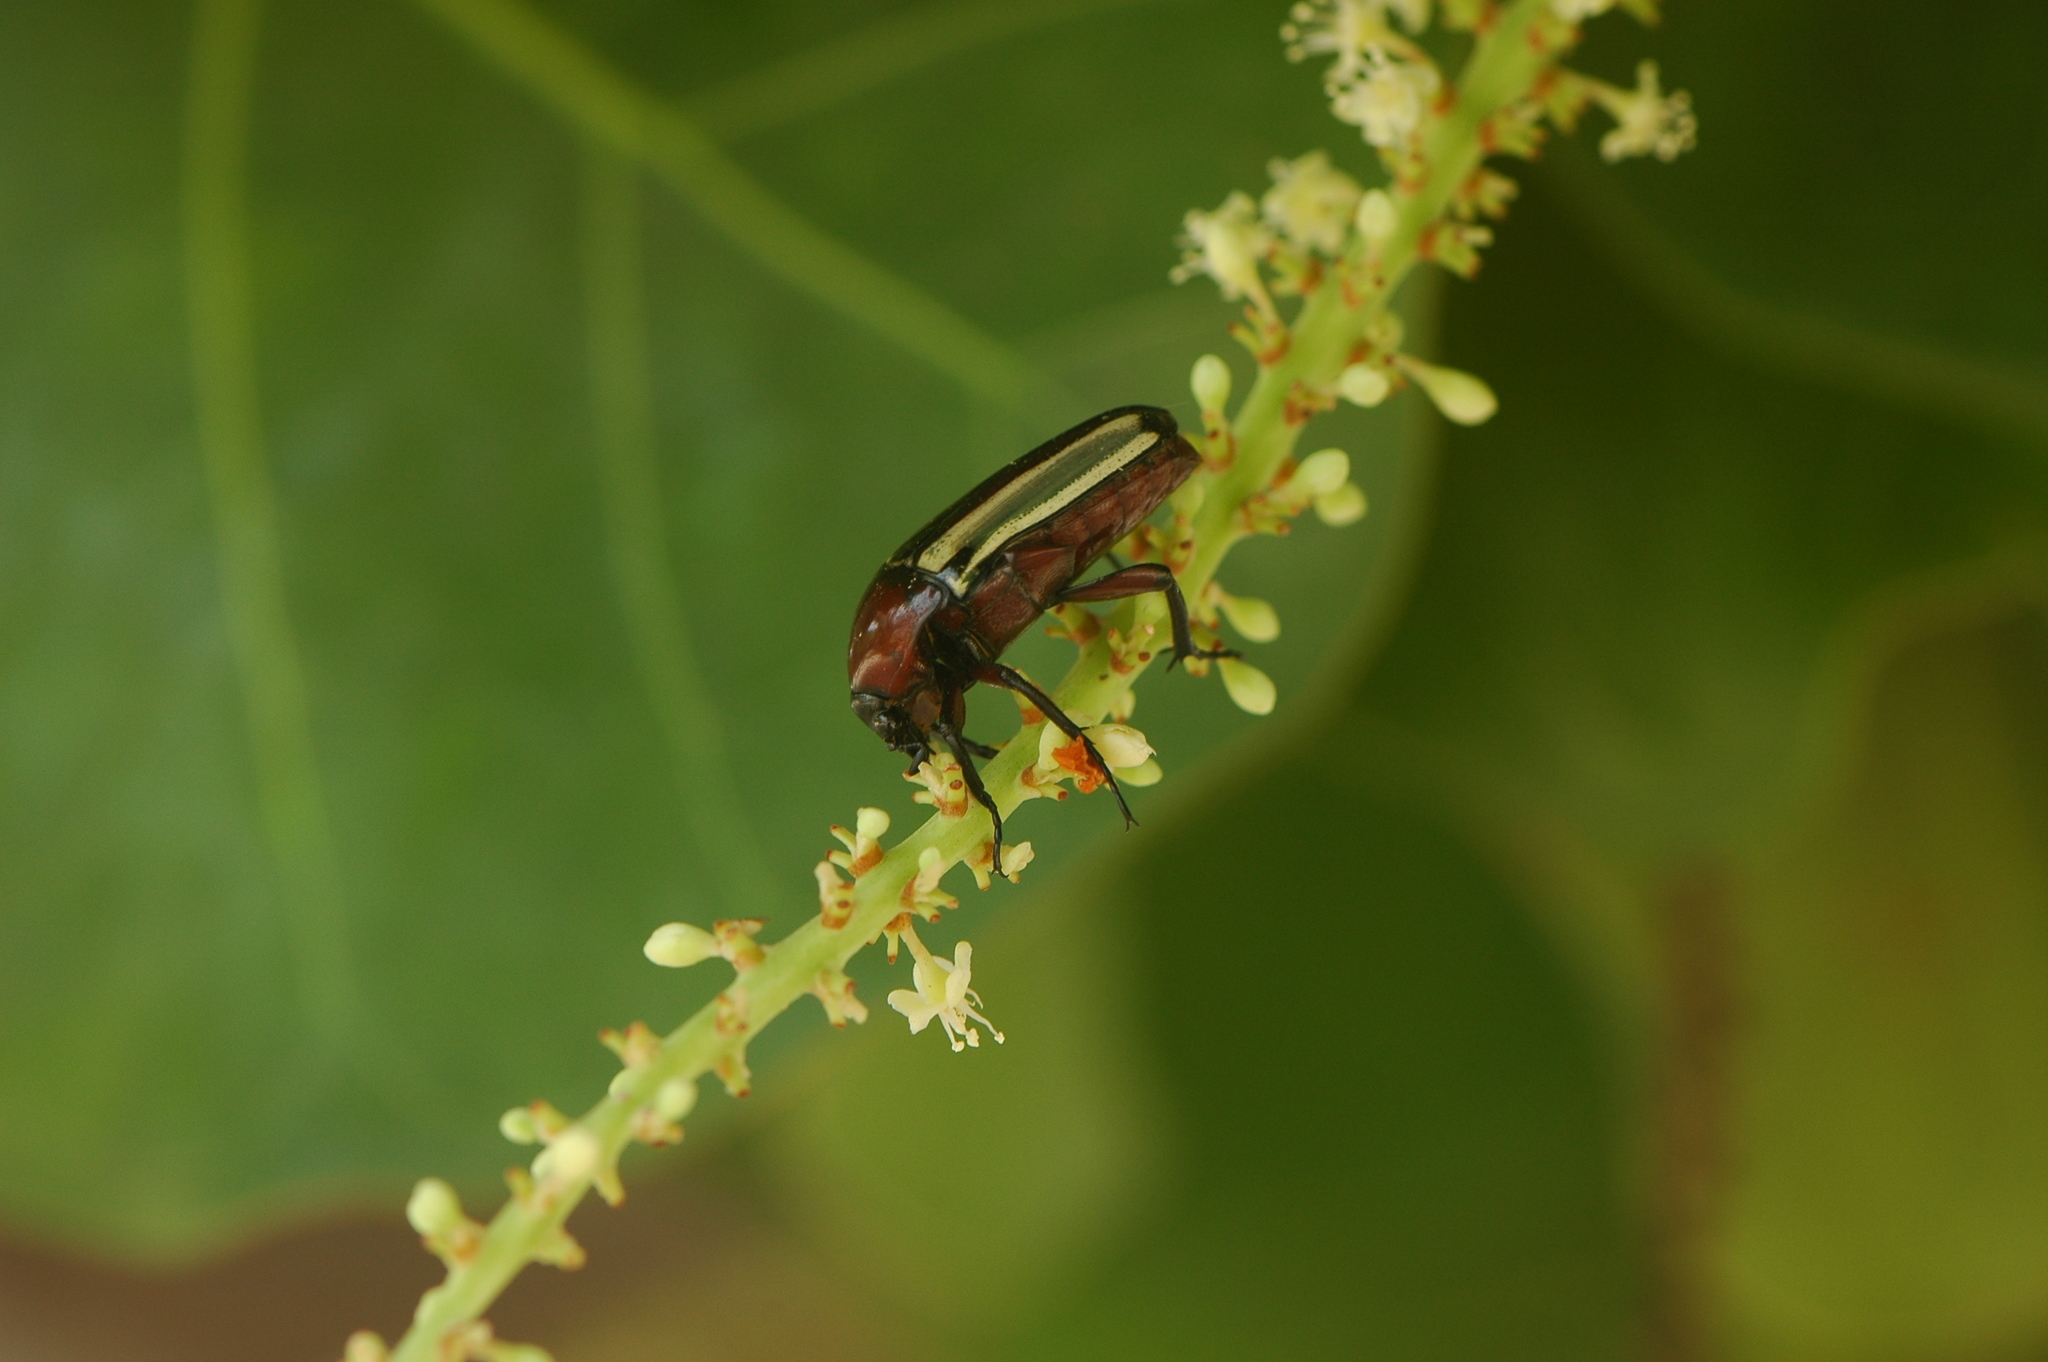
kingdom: Animalia
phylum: Arthropoda
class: Insecta
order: Coleoptera
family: Scarabaeidae
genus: Chlorocala
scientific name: Chlorocala guerini
